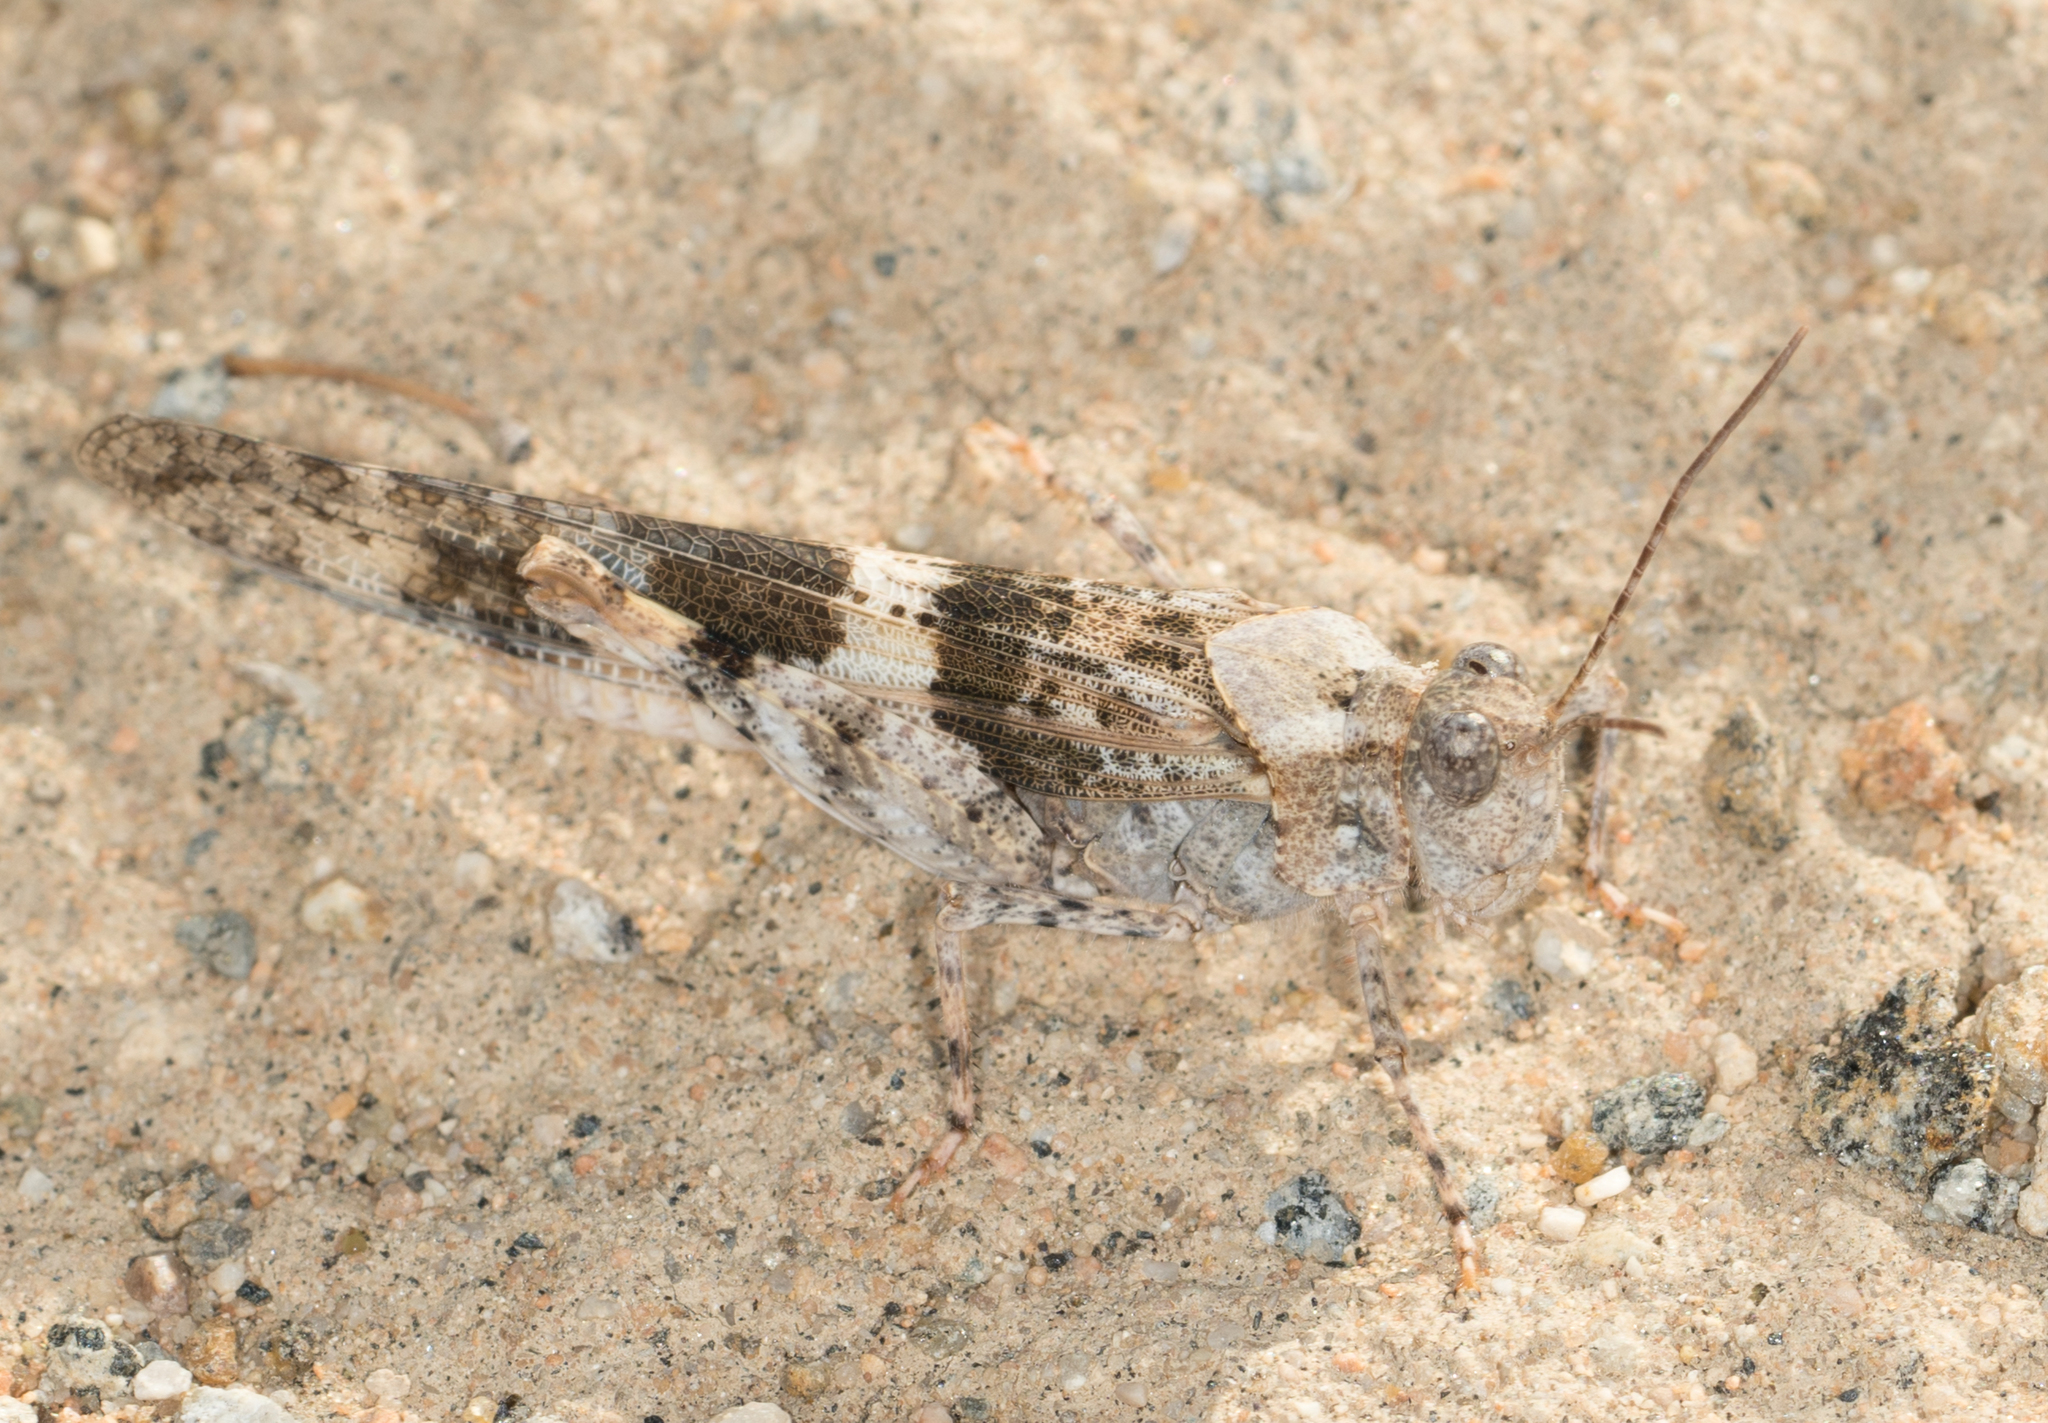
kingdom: Animalia
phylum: Arthropoda
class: Insecta
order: Orthoptera
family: Acrididae
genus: Trimerotropis
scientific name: Trimerotropis pallidipennis
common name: Pallid-winged grasshopper
